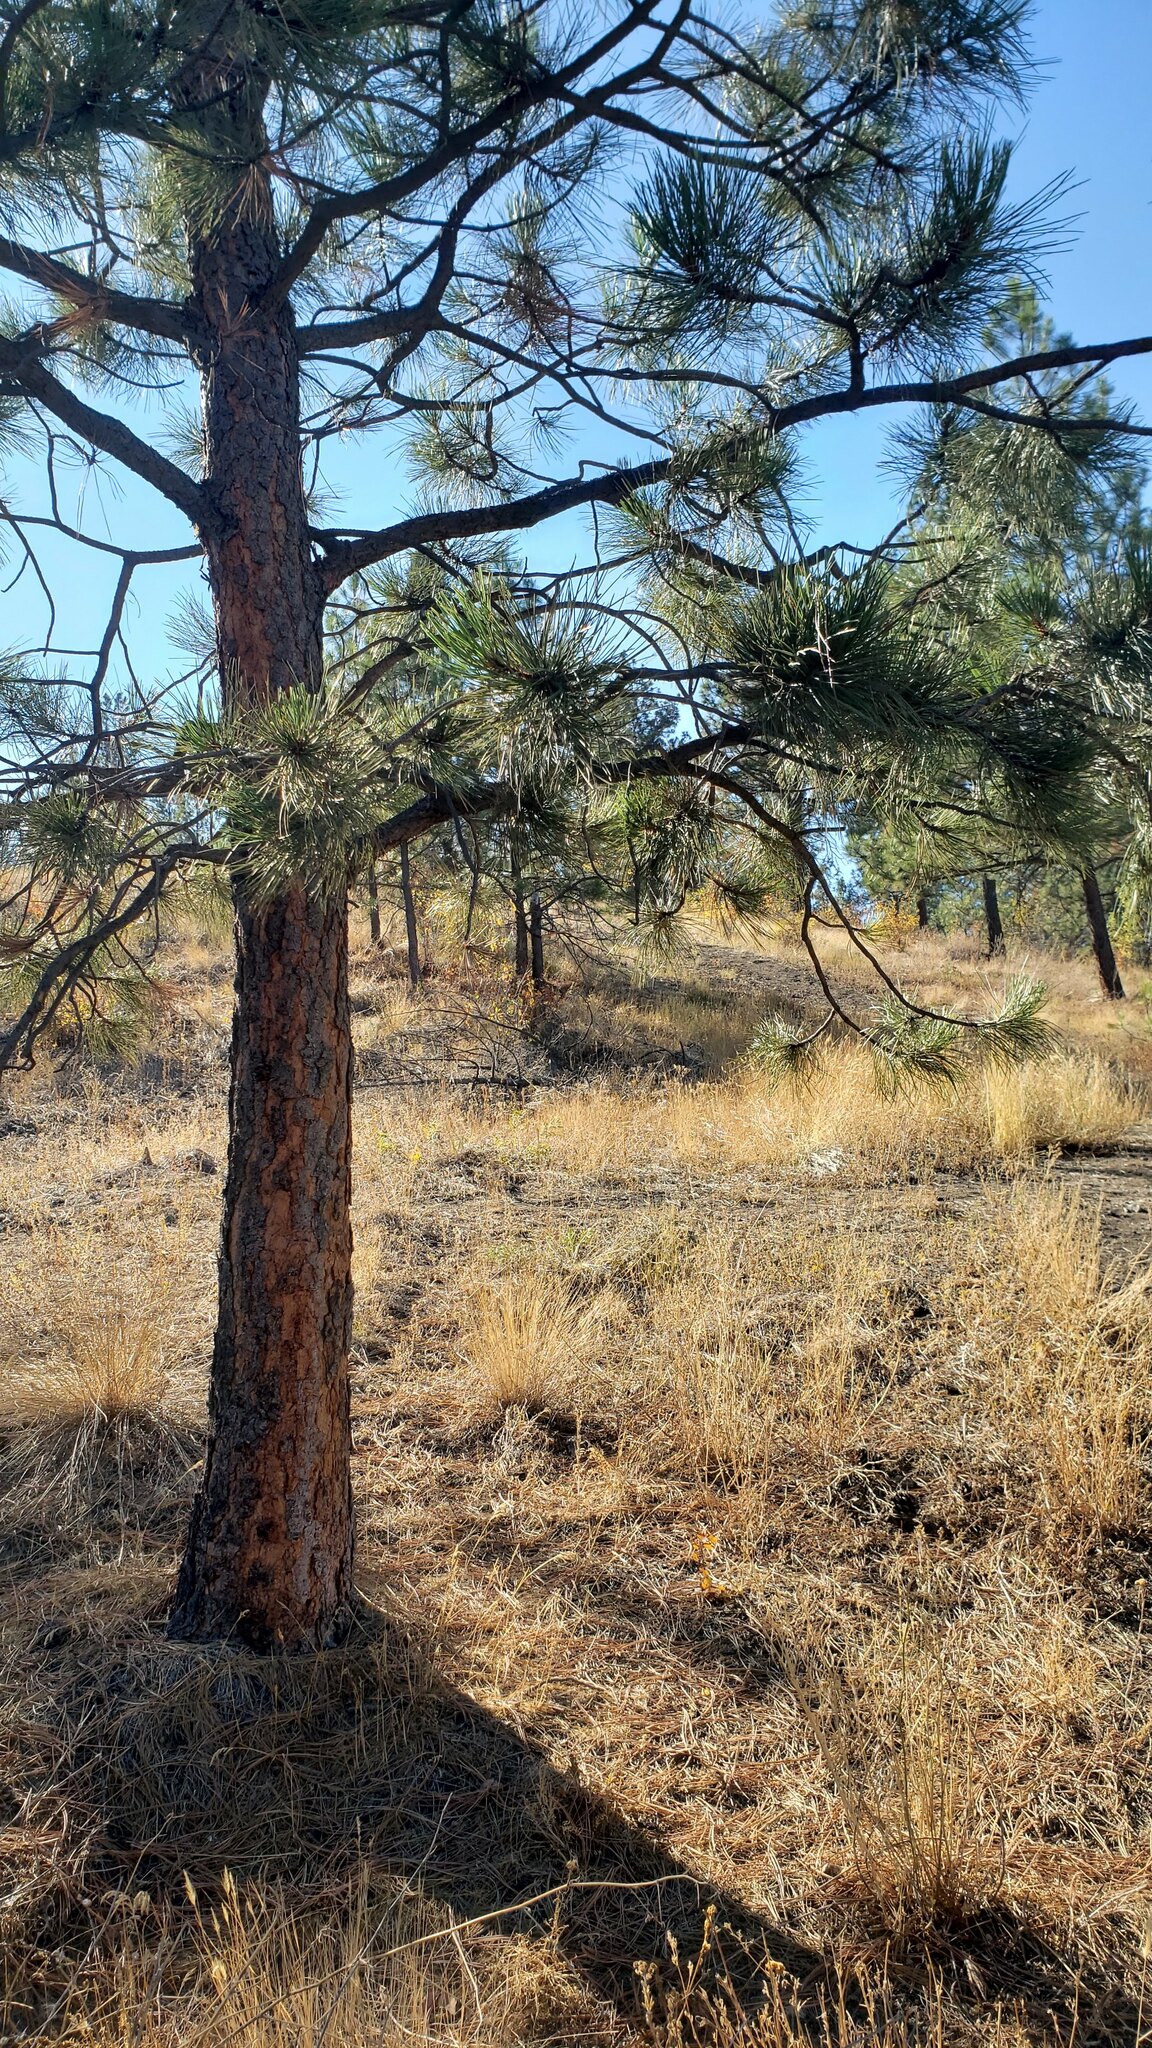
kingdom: Plantae
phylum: Tracheophyta
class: Pinopsida
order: Pinales
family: Pinaceae
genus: Pinus
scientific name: Pinus ponderosa
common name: Western yellow-pine
